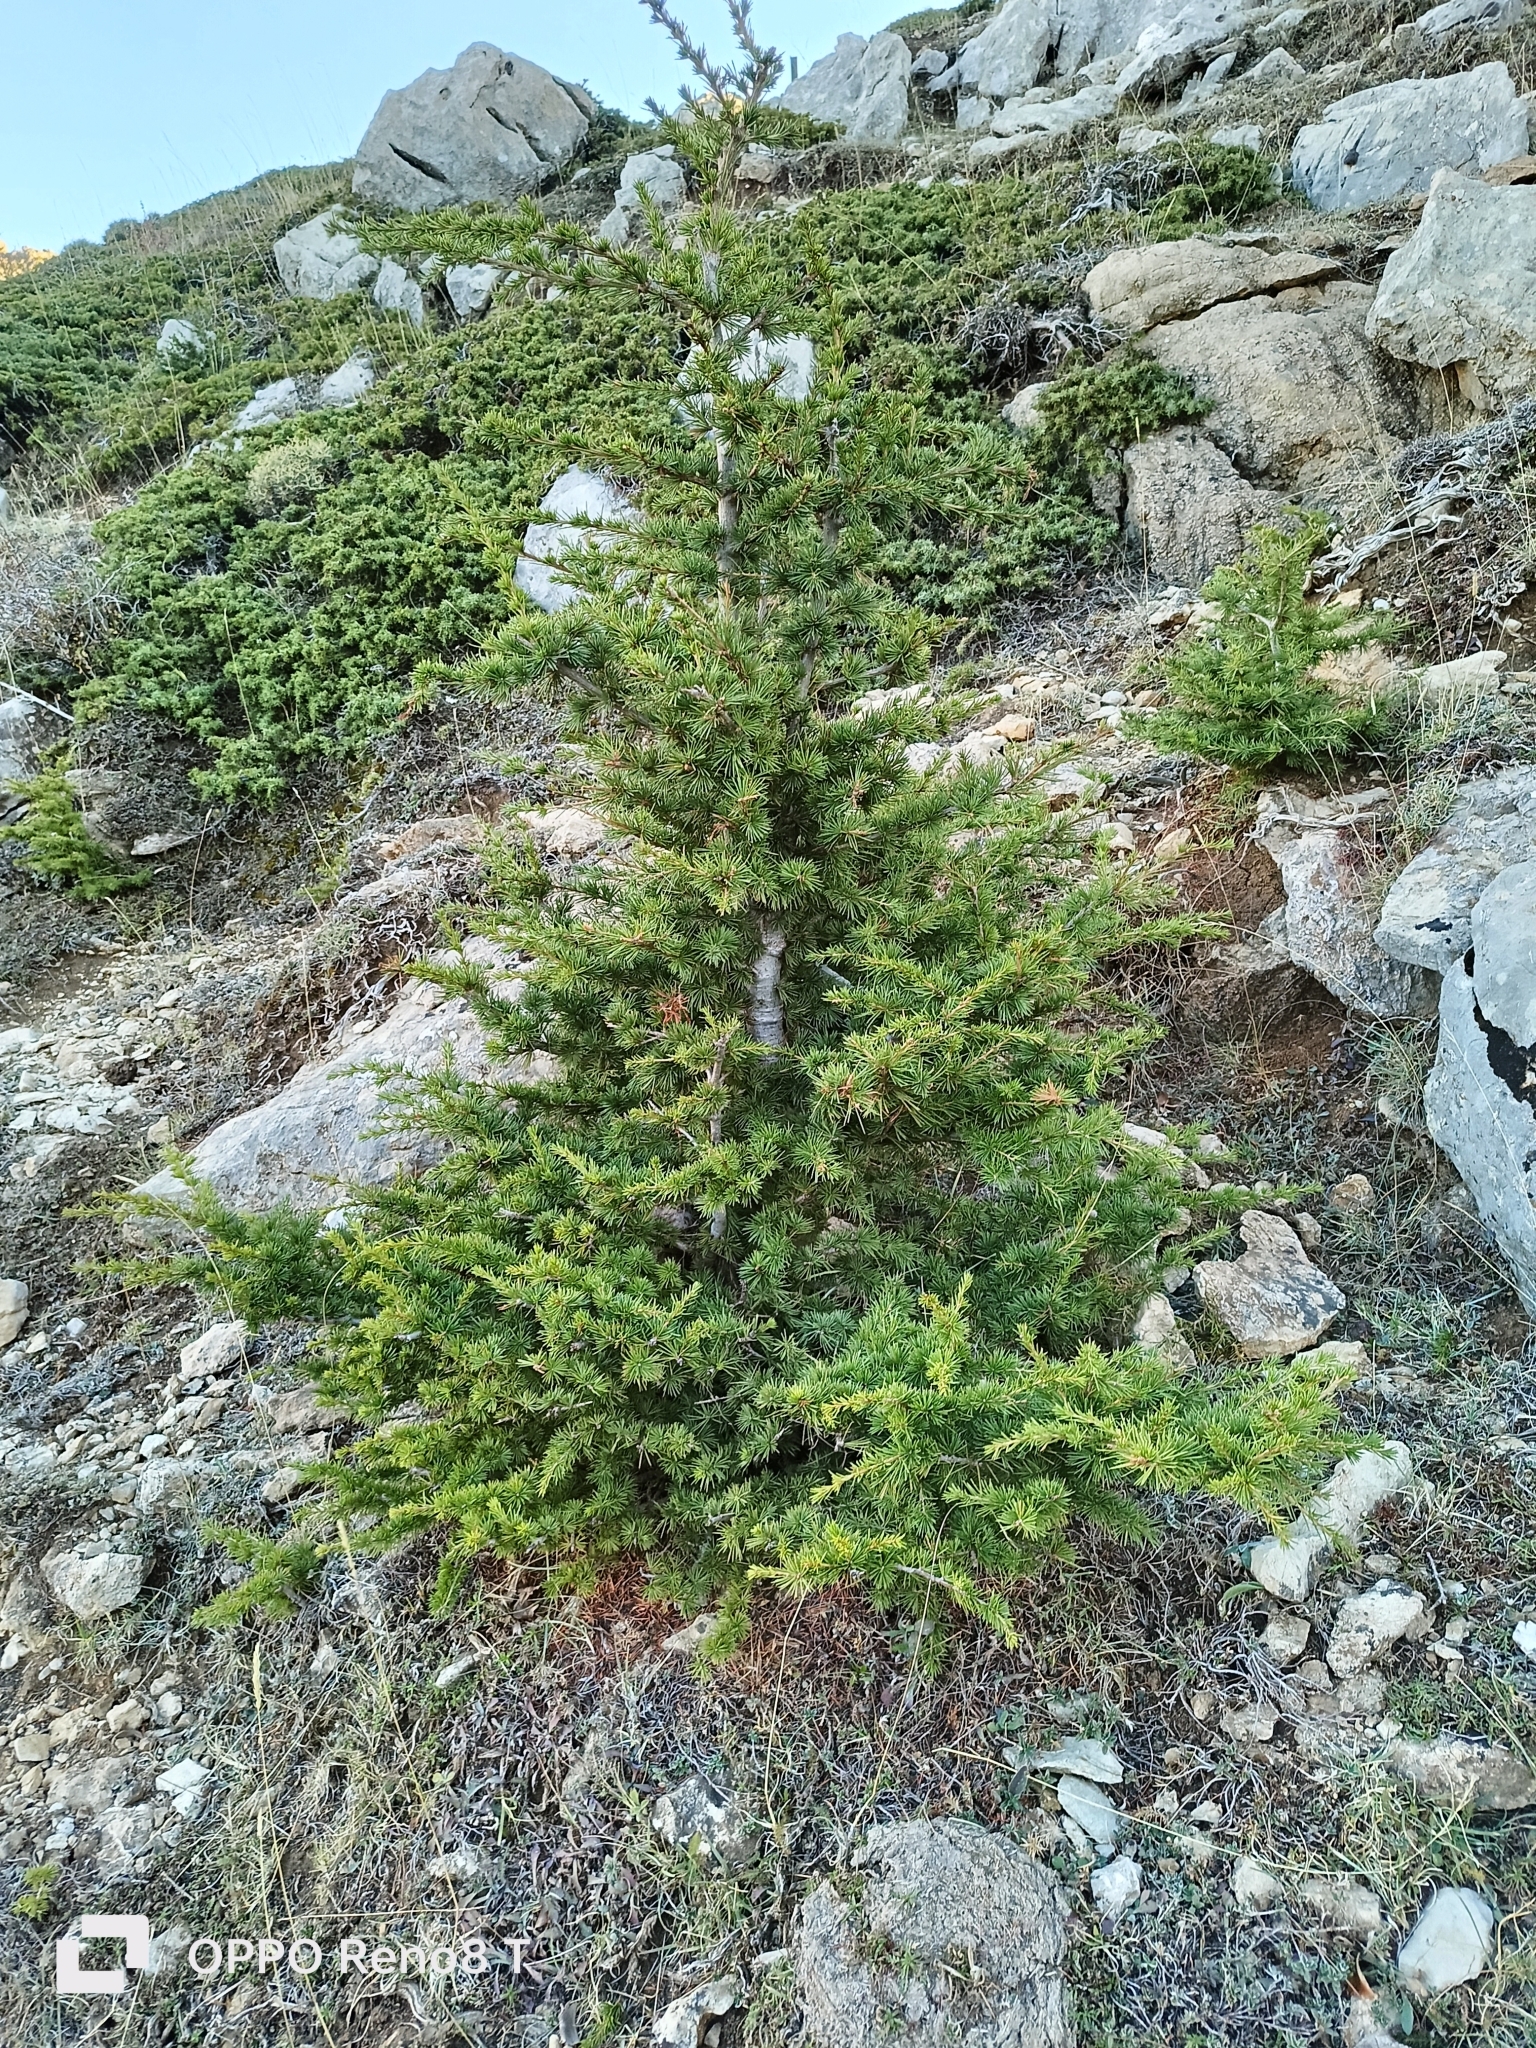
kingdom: Plantae
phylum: Tracheophyta
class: Pinopsida
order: Pinales
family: Pinaceae
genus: Cedrus
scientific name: Cedrus atlantica
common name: Atlas cedar
